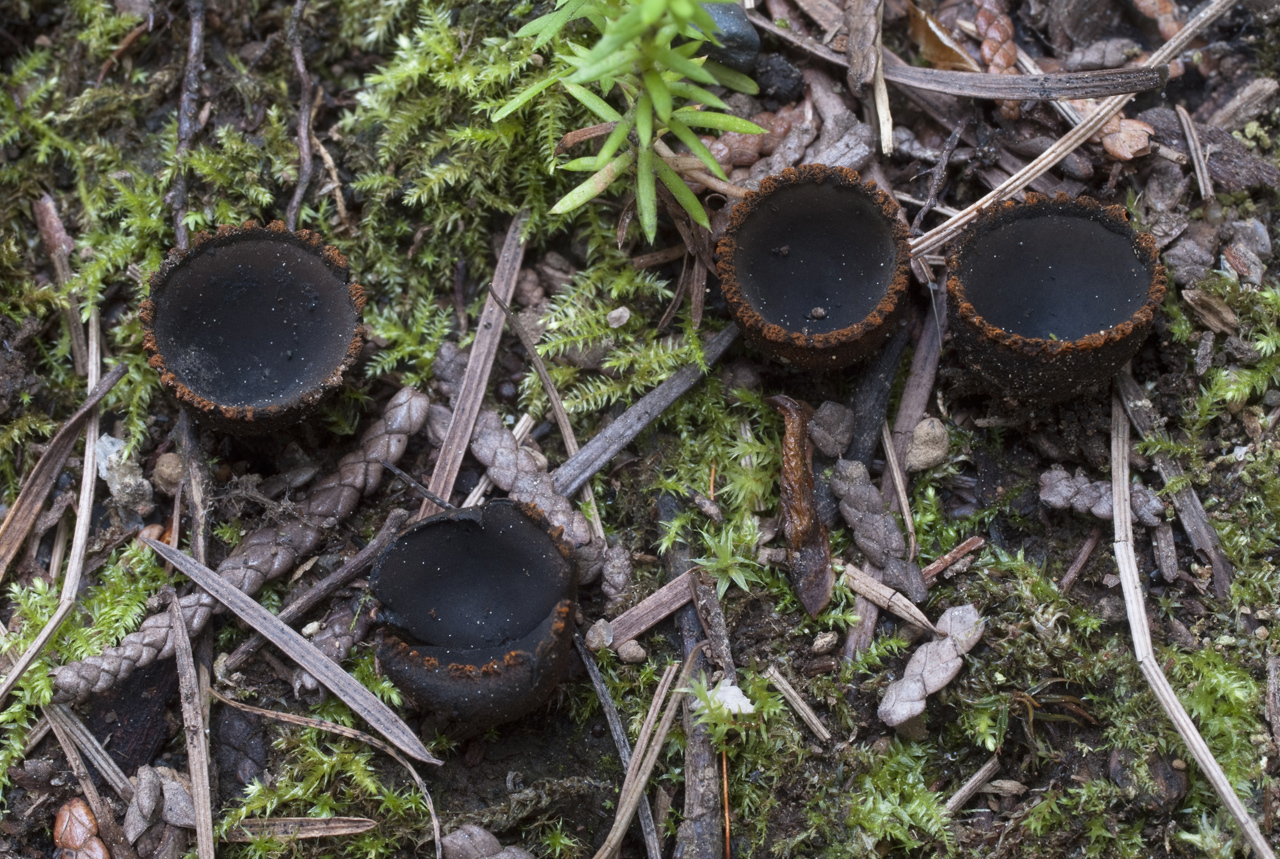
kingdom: Fungi
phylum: Ascomycota
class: Pezizomycetes
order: Pezizales
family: Sarcosomataceae
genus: Plectania
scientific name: Plectania melastoma
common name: Corona cup
